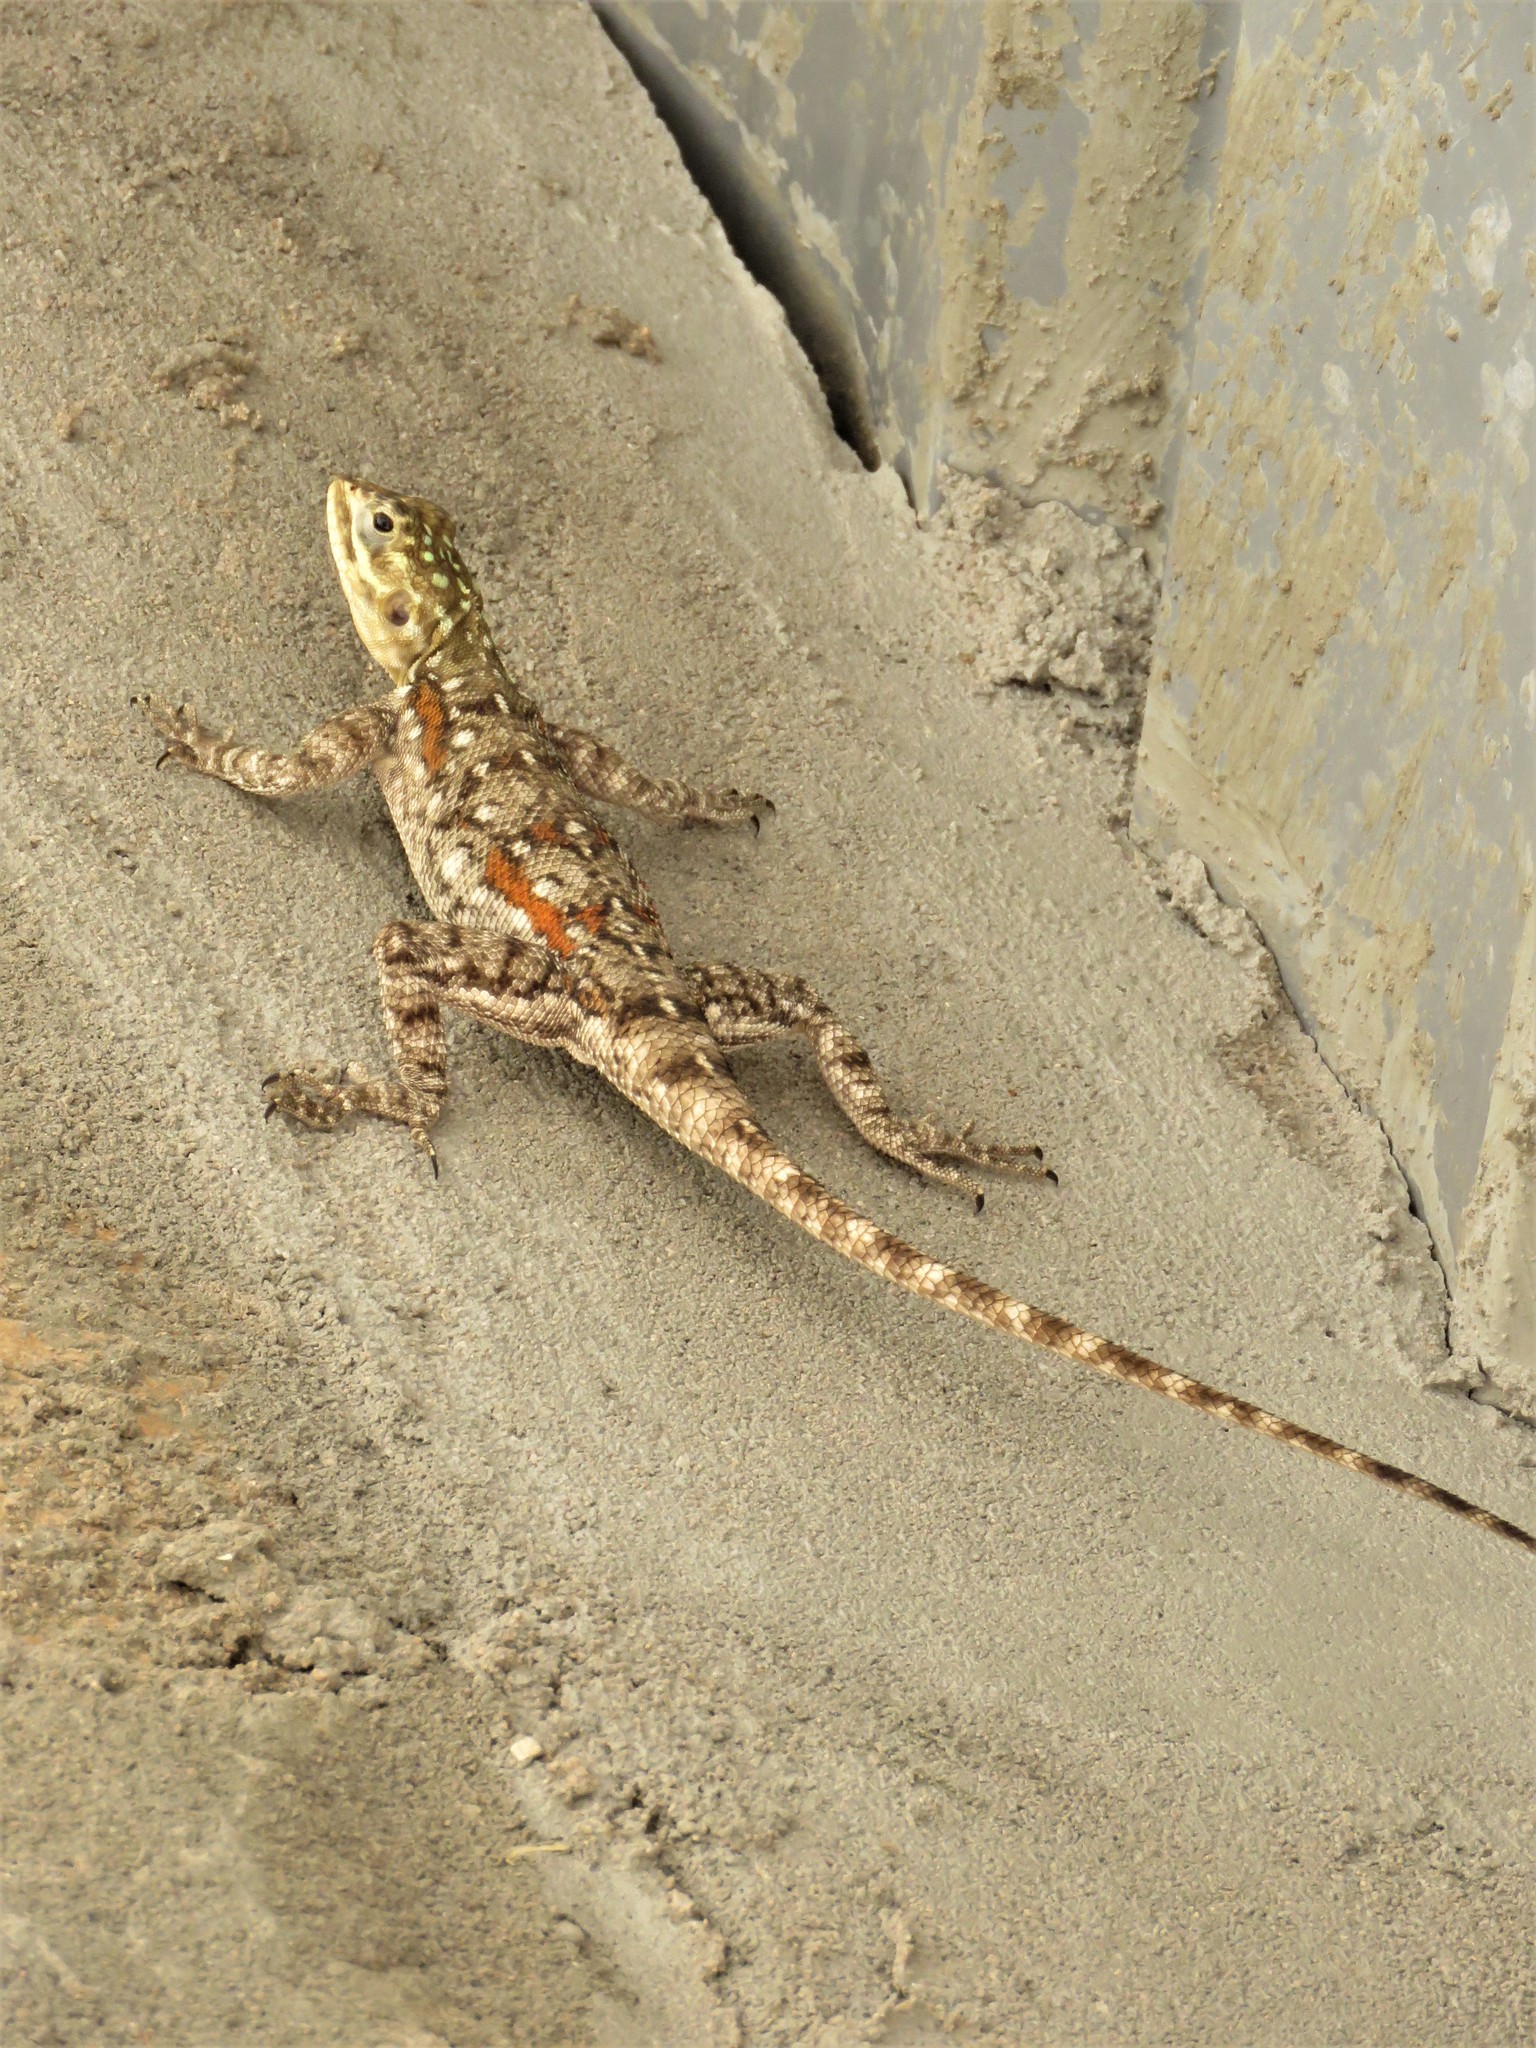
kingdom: Animalia
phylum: Chordata
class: Squamata
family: Agamidae
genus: Agama
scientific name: Agama lionotus
